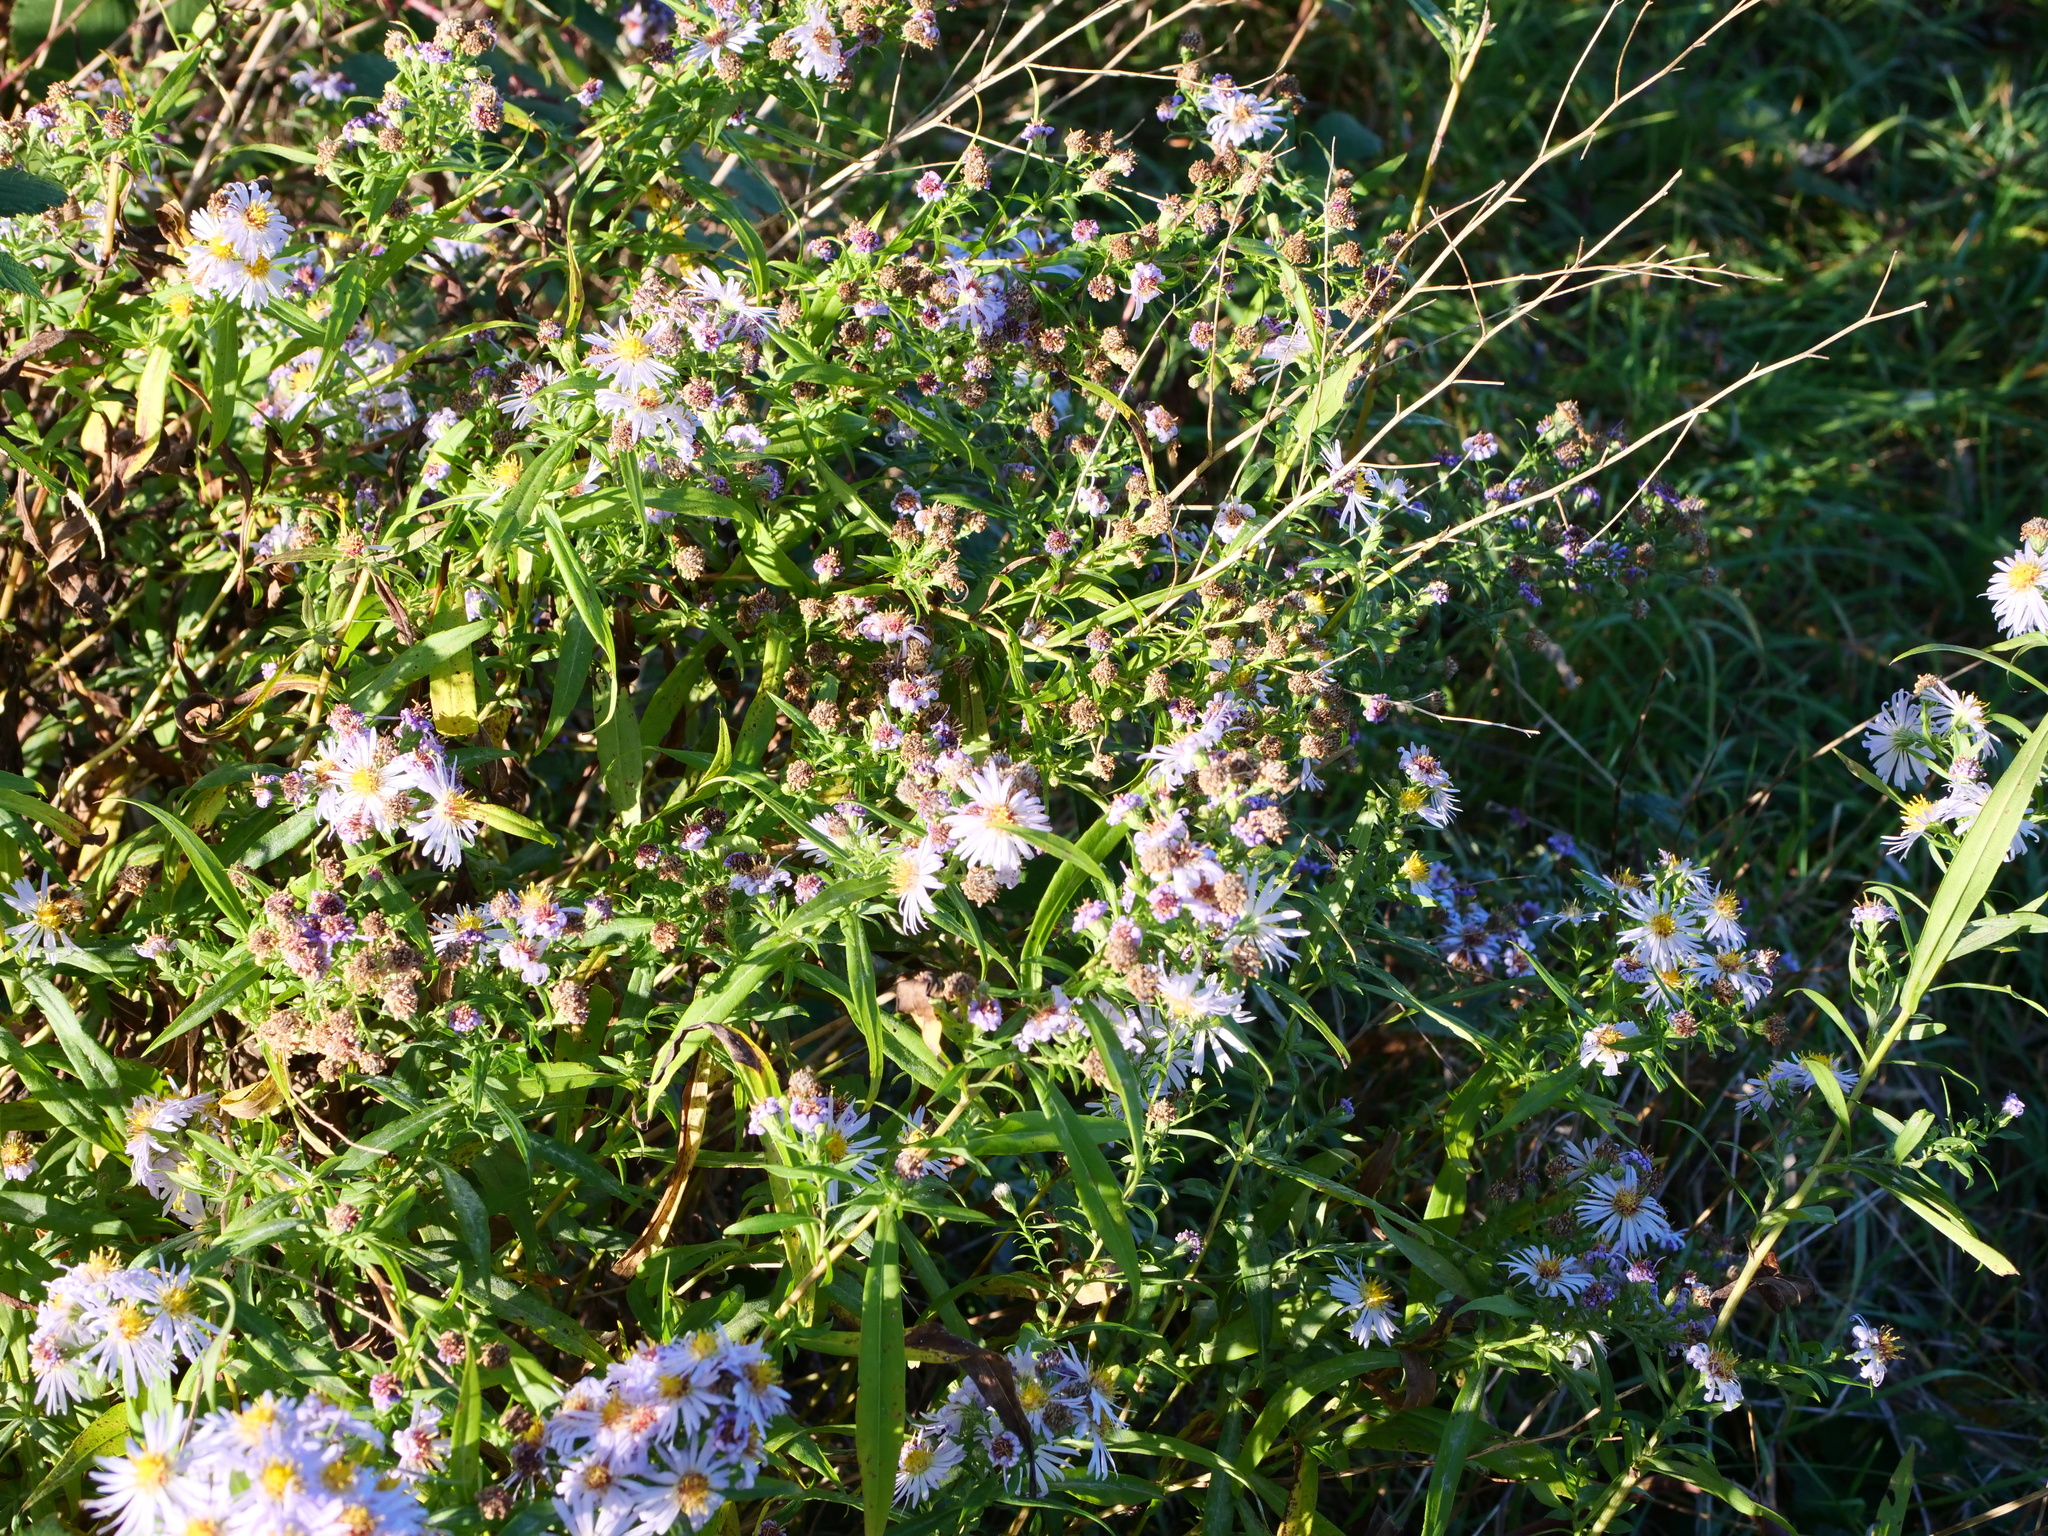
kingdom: Plantae
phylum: Tracheophyta
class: Magnoliopsida
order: Asterales
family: Asteraceae
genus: Symphyotrichum
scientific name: Symphyotrichum novi-belgii
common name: Michaelmas daisy
